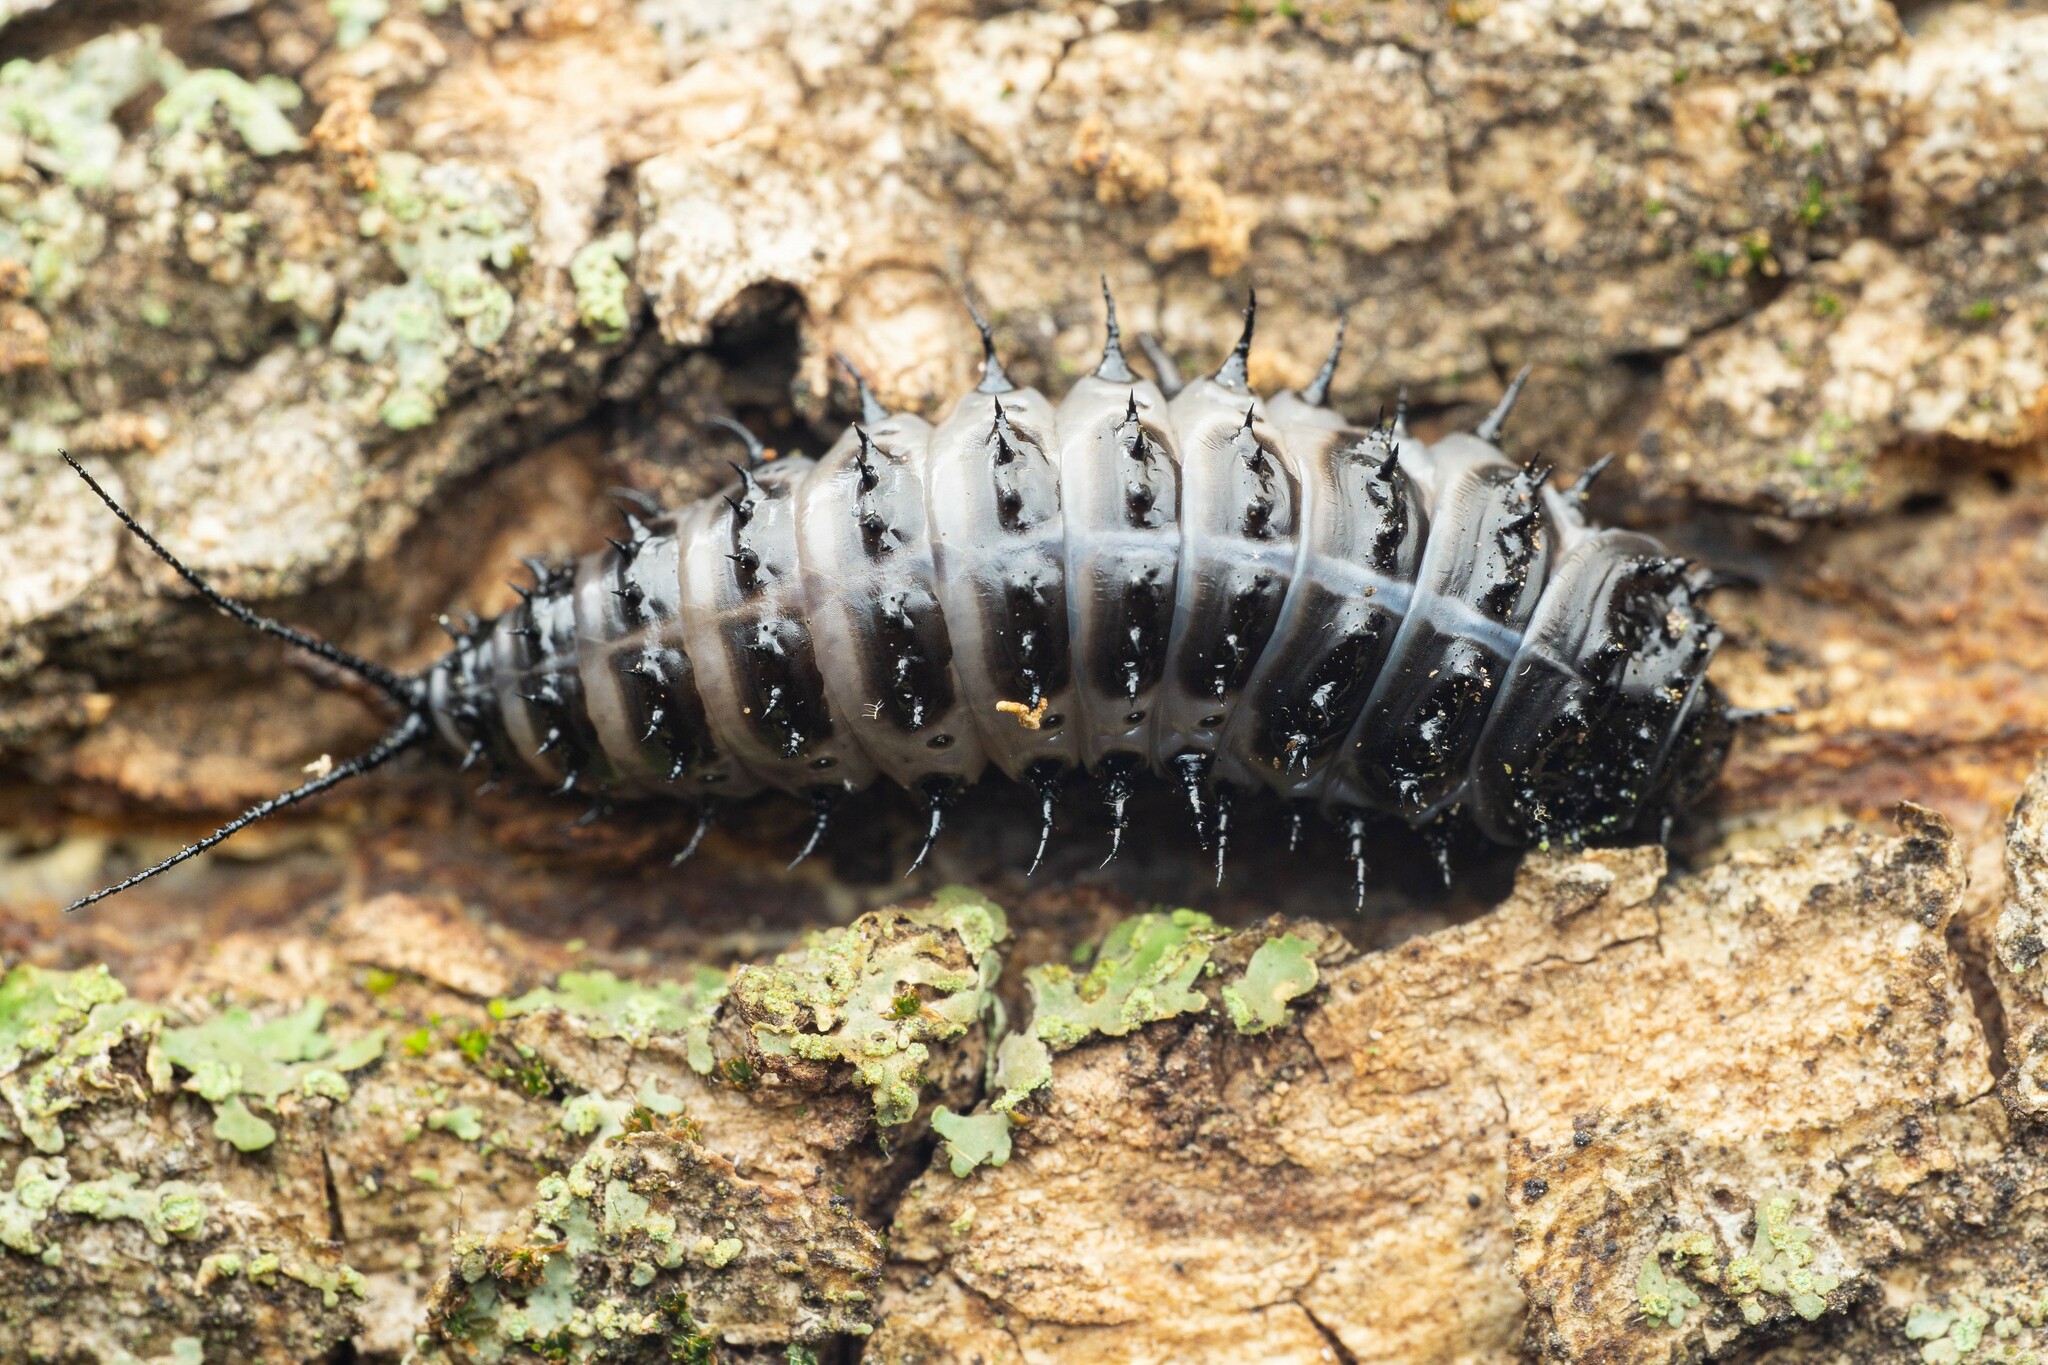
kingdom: Animalia
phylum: Arthropoda
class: Insecta
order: Coleoptera
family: Erotylidae
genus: Gibbifer
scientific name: Gibbifer californicus
